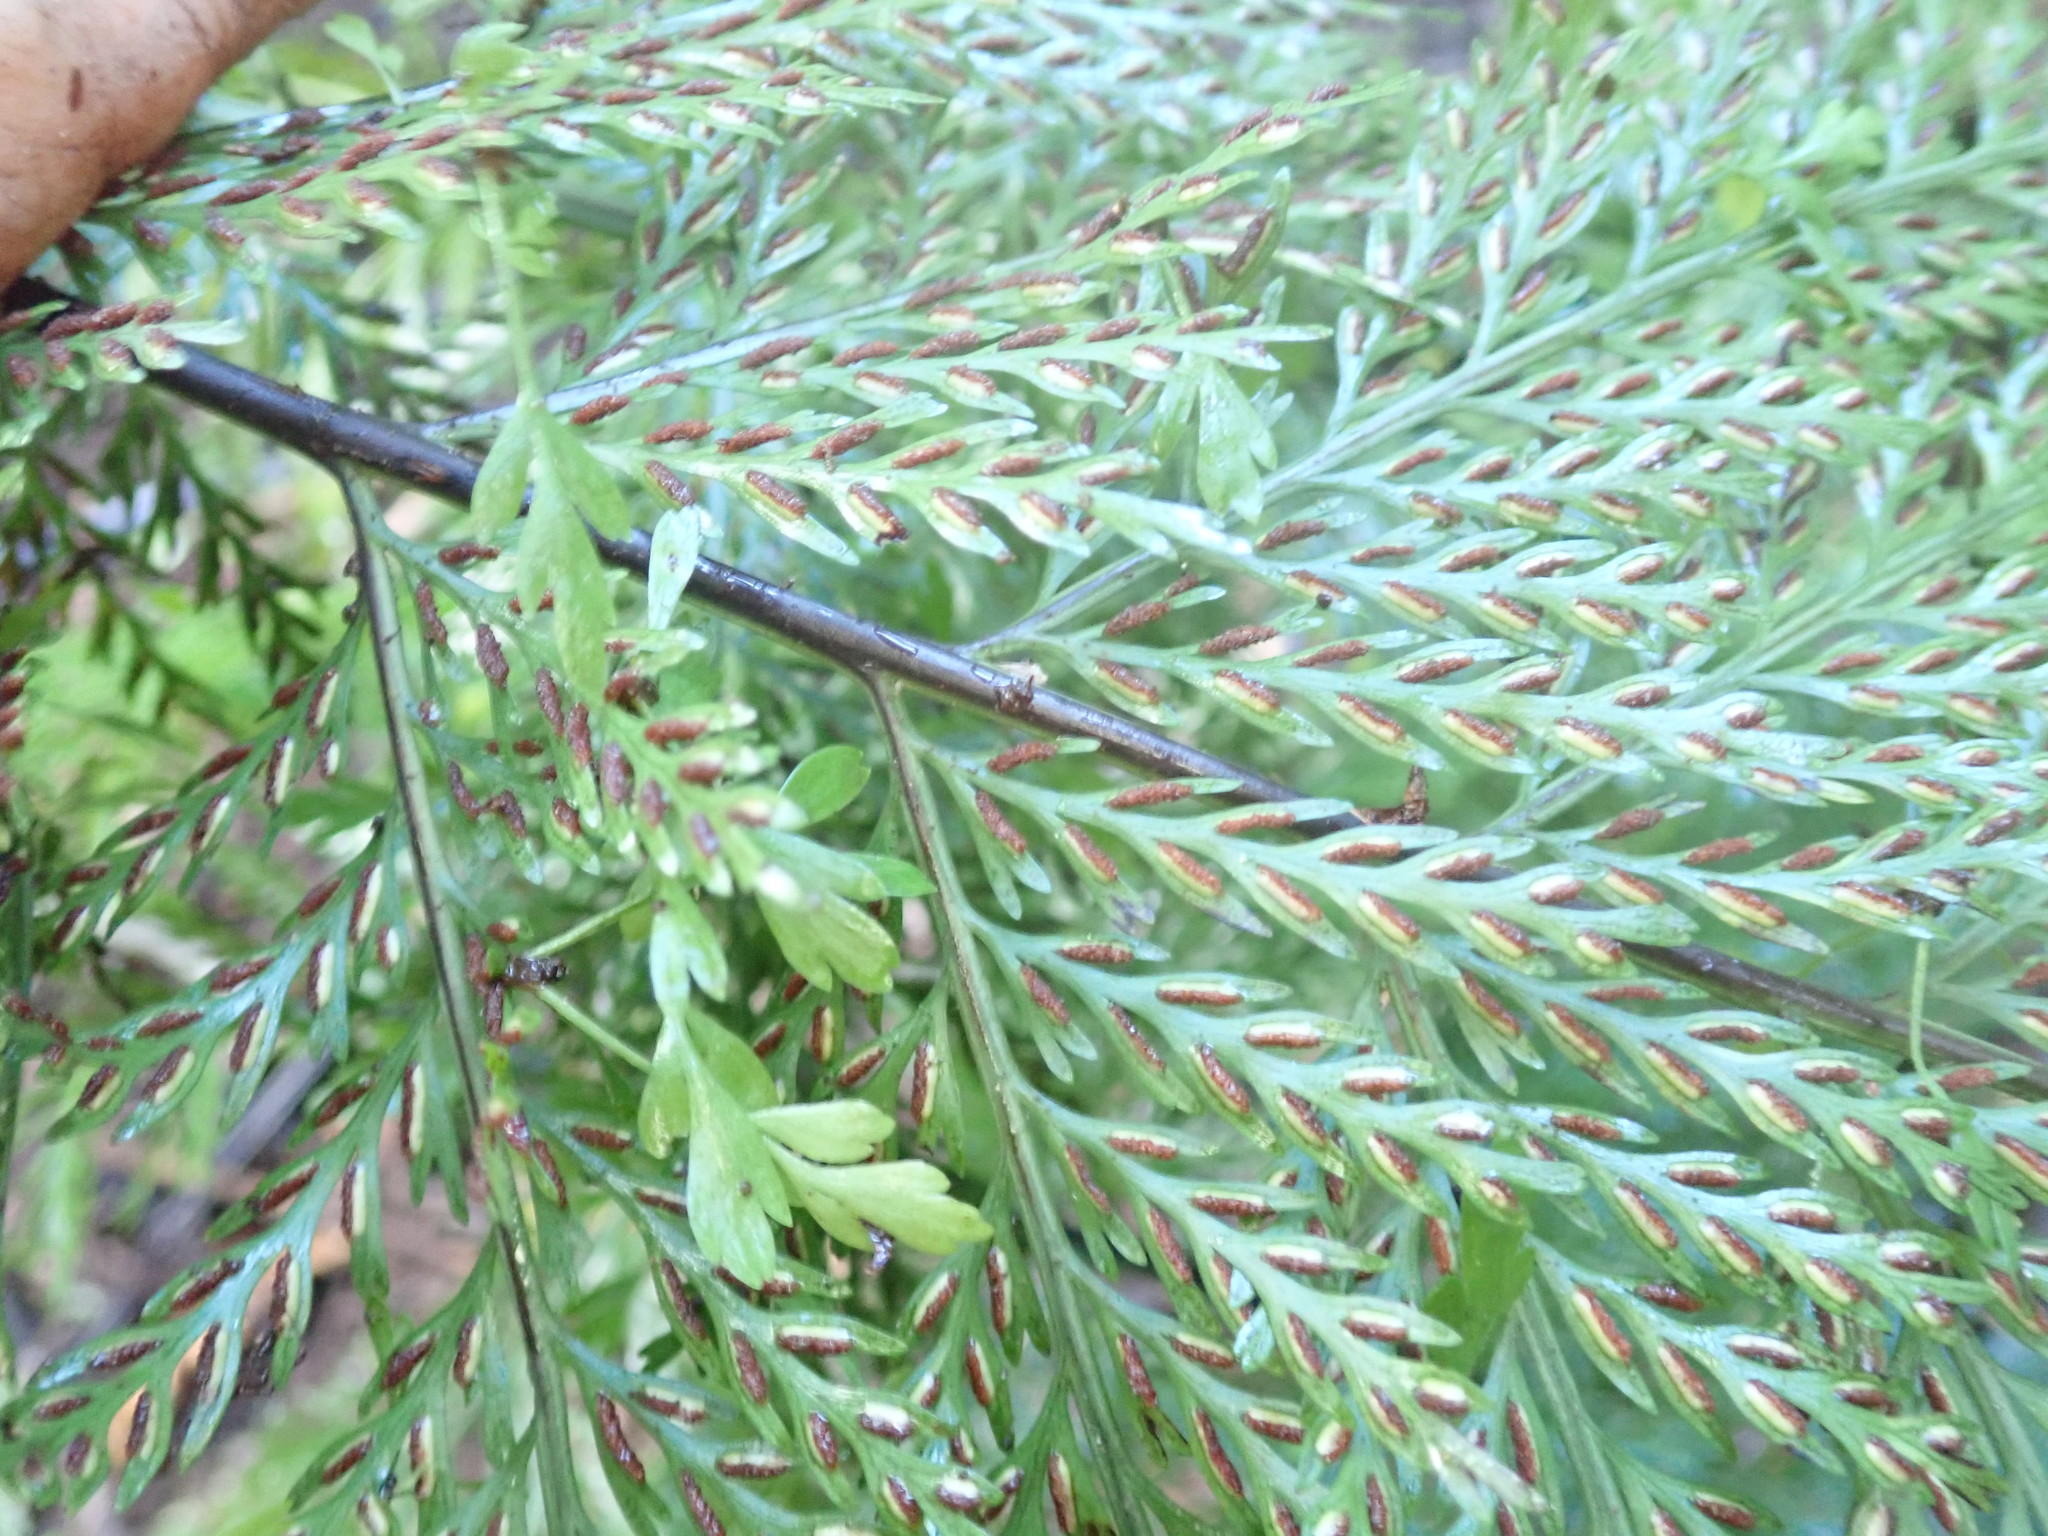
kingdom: Plantae
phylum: Tracheophyta
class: Polypodiopsida
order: Polypodiales
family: Aspleniaceae
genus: Asplenium
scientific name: Asplenium lucrosum
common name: False hen-and-chickens fern
